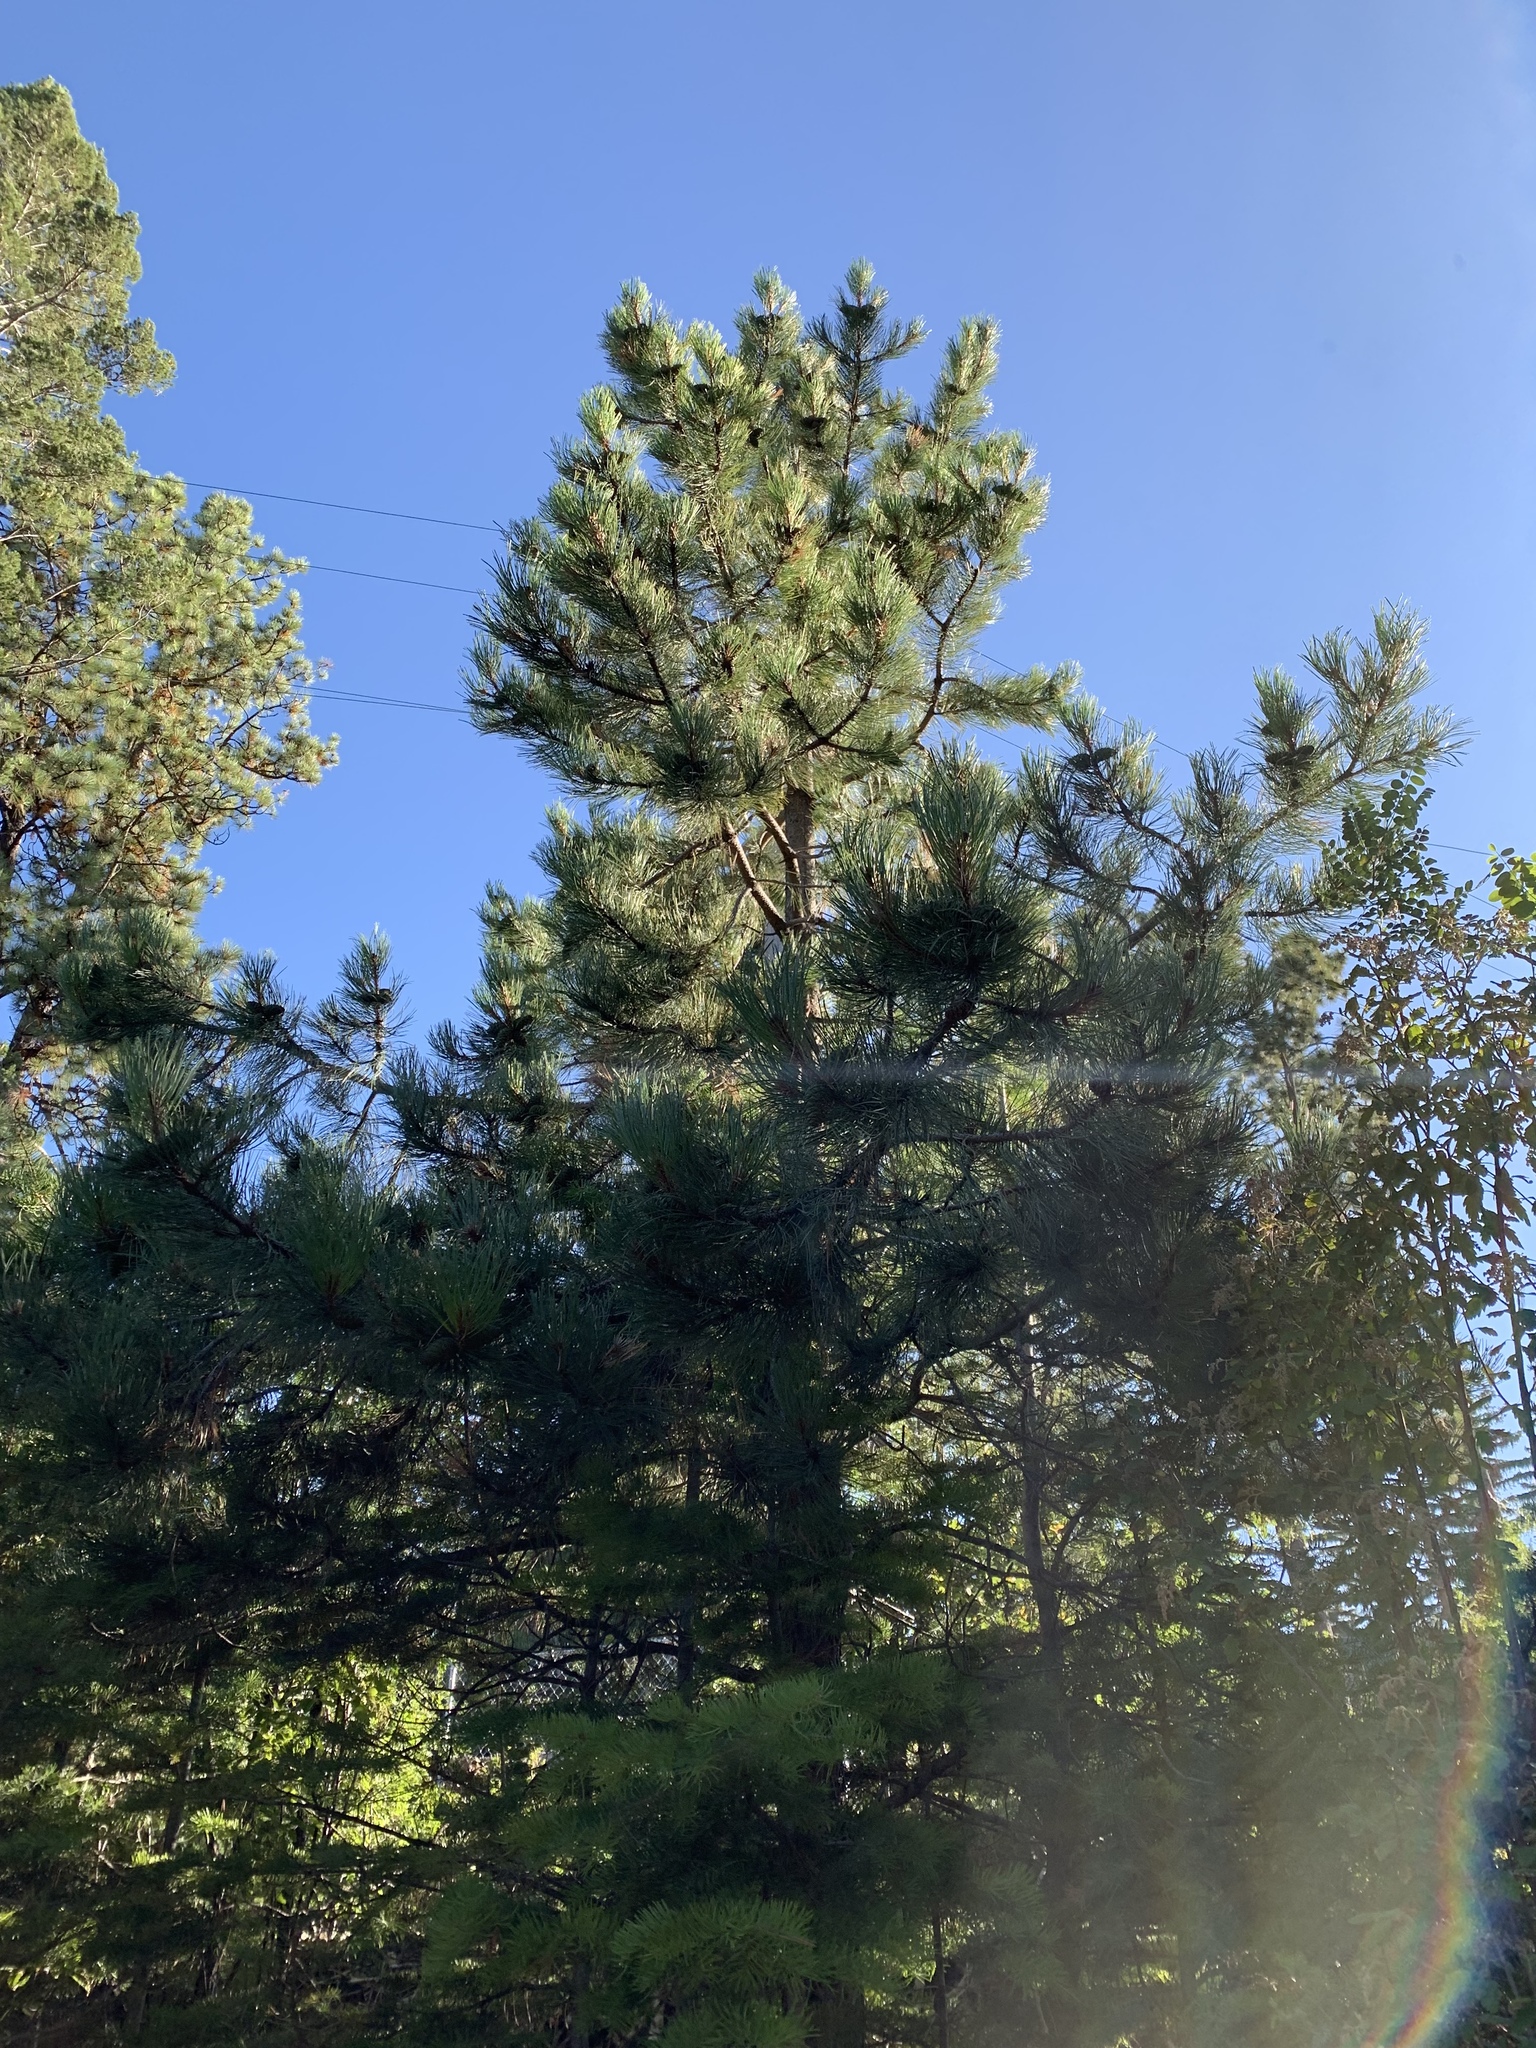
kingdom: Plantae
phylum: Tracheophyta
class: Pinopsida
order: Pinales
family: Pinaceae
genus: Pinus
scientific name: Pinus ponderosa
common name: Western yellow-pine
